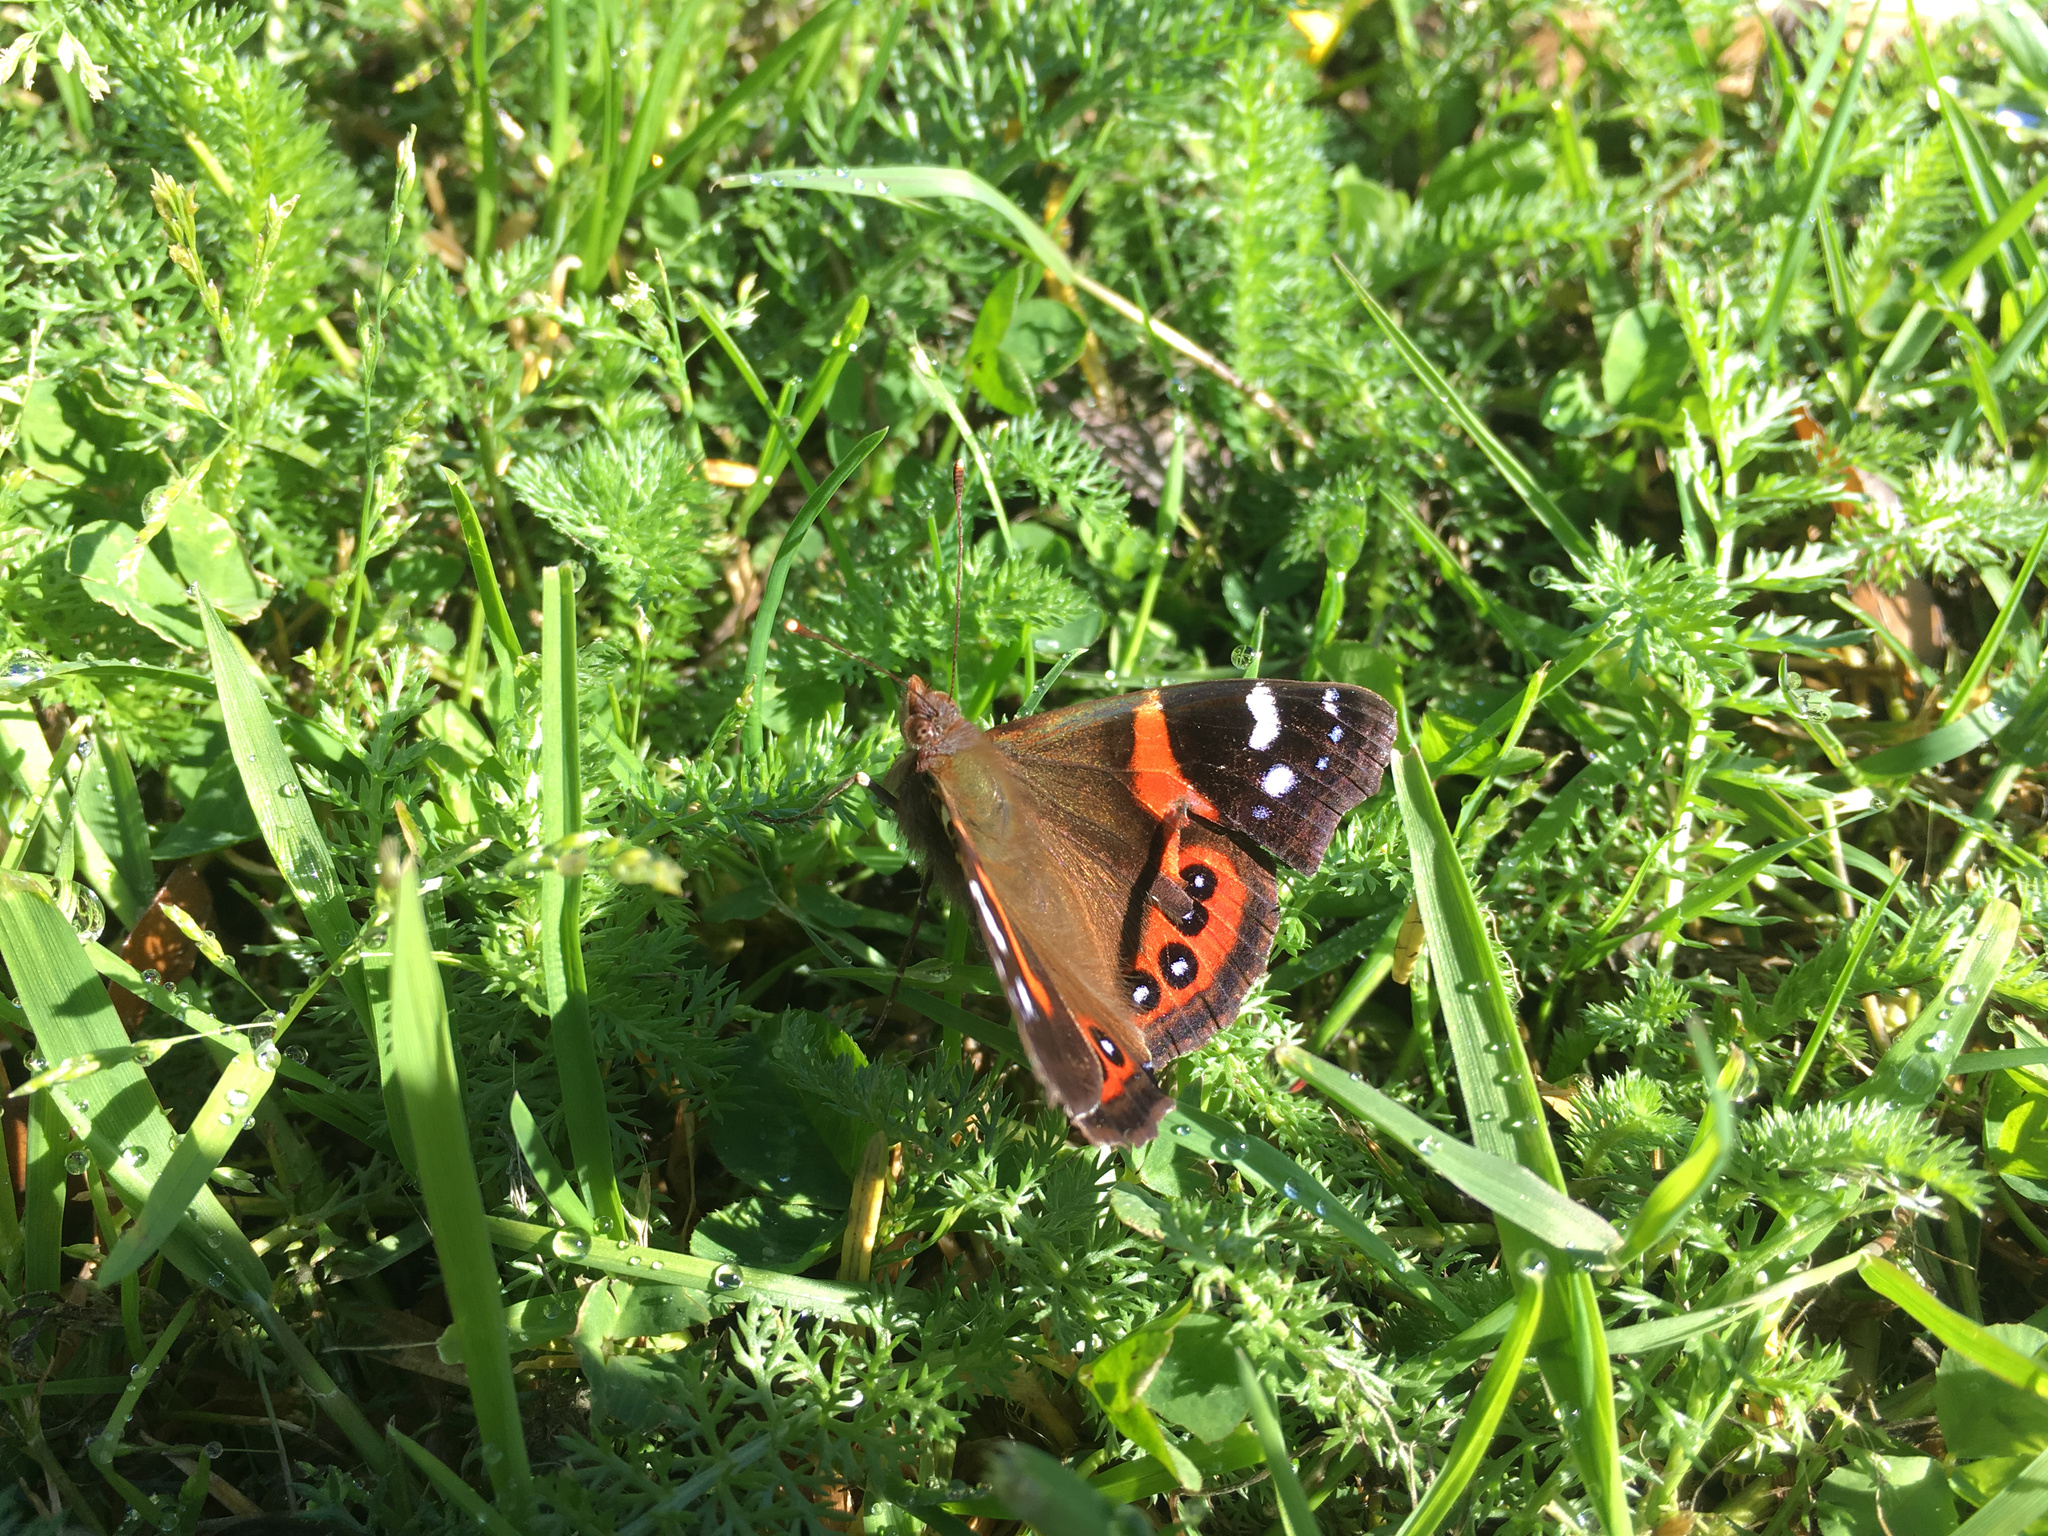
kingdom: Animalia
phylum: Arthropoda
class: Insecta
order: Lepidoptera
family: Nymphalidae
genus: Vanessa
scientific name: Vanessa gonerilla
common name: New zealand red admiral
